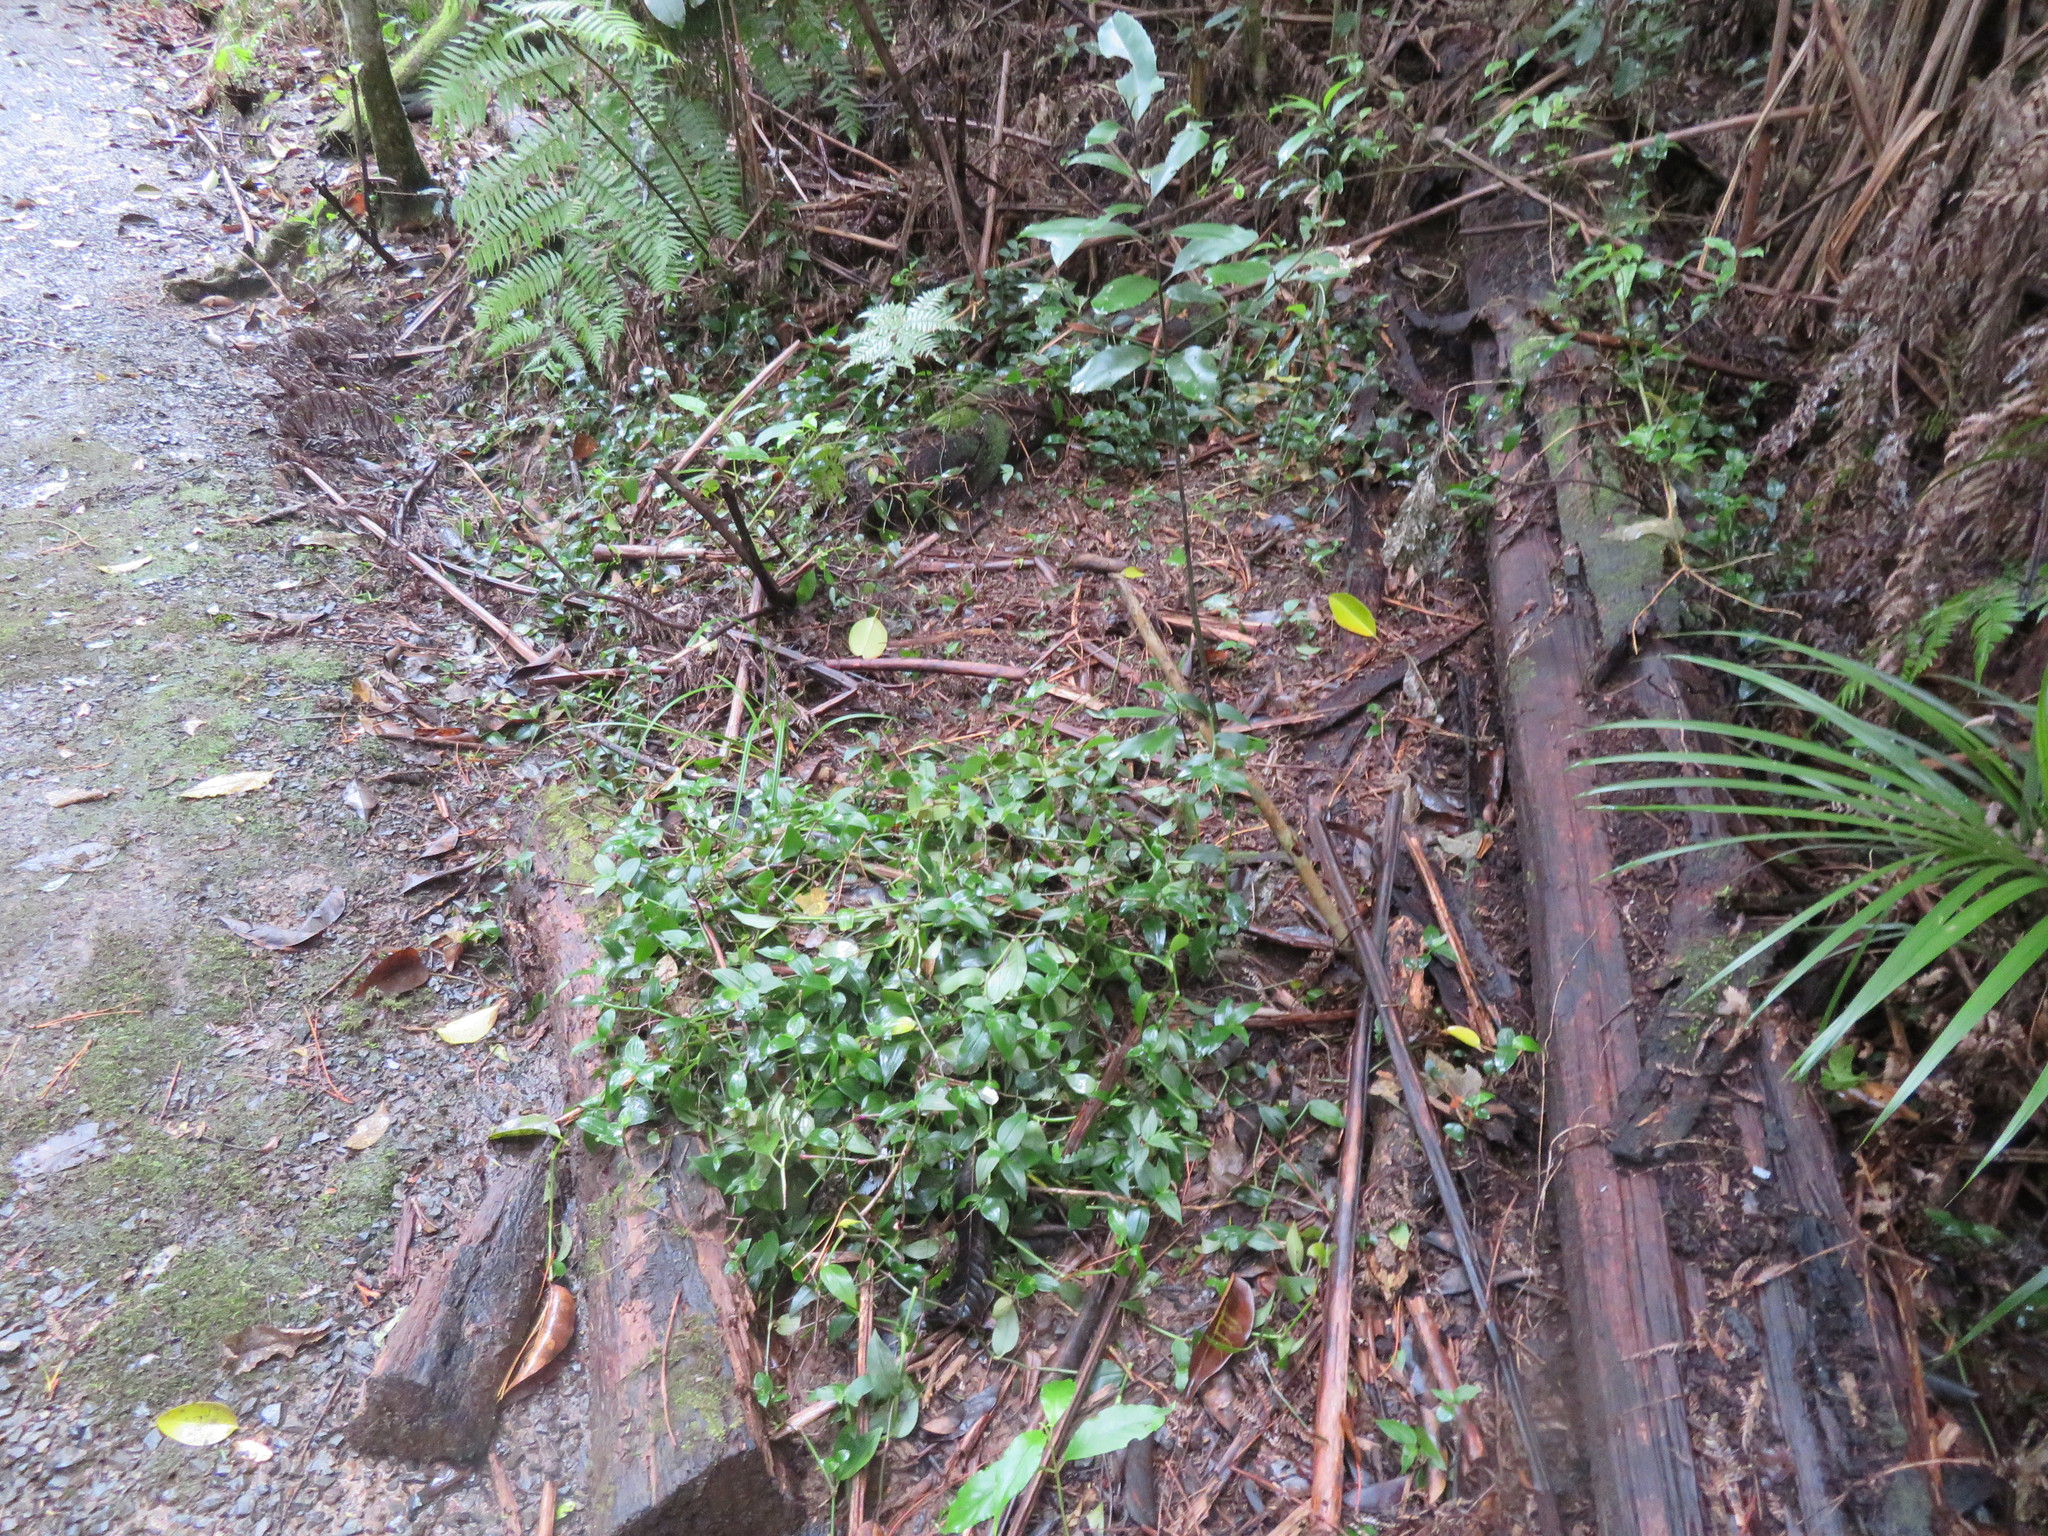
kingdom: Plantae
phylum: Tracheophyta
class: Liliopsida
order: Commelinales
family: Commelinaceae
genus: Tradescantia
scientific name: Tradescantia fluminensis
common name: Wandering-jew
